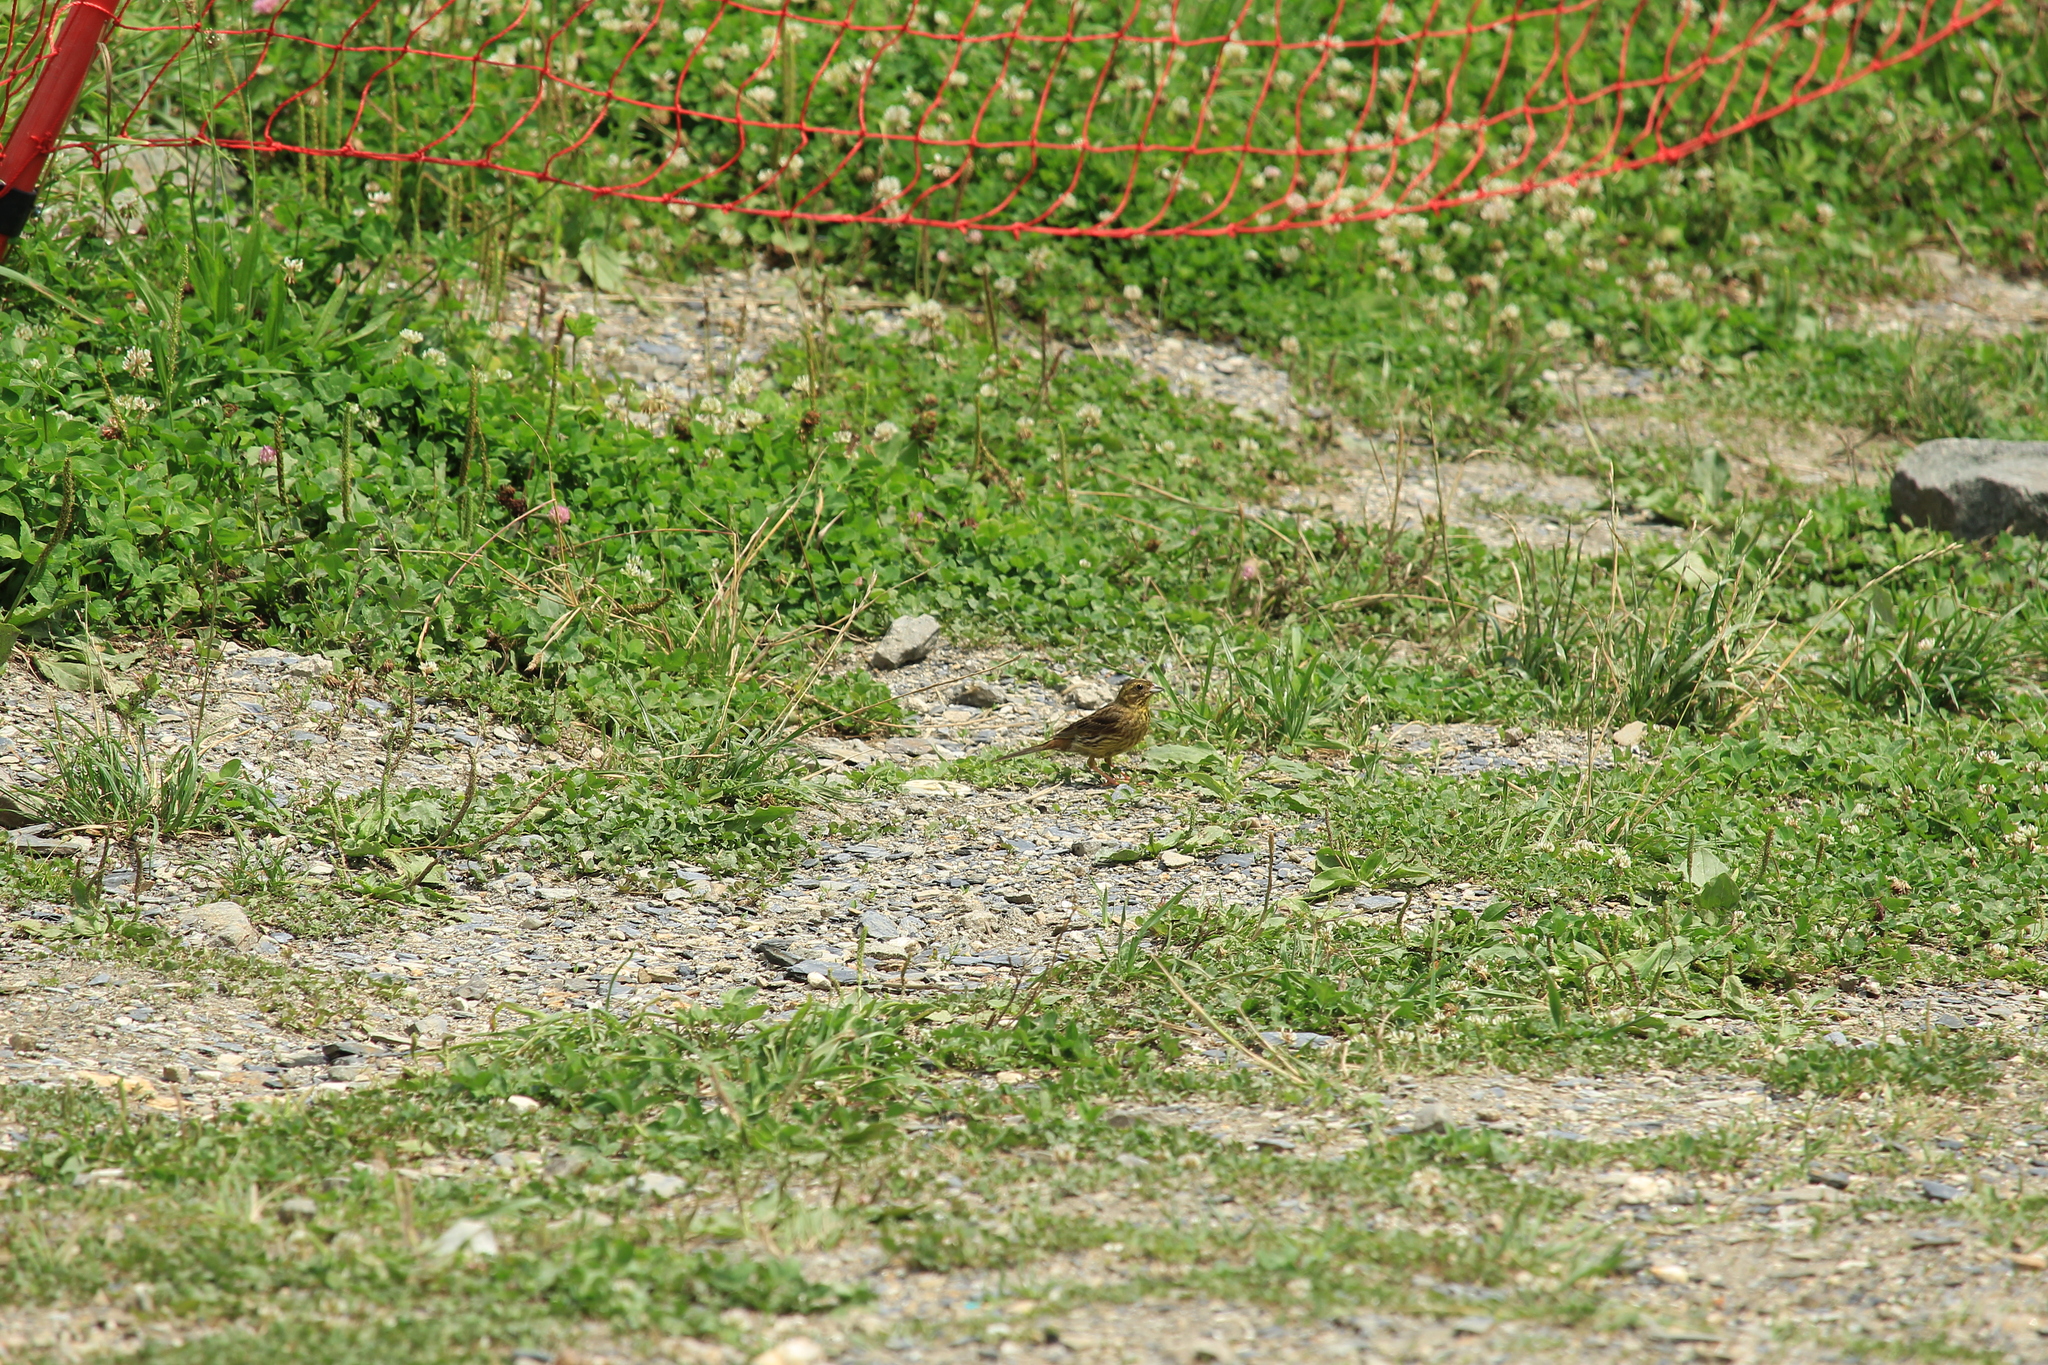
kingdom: Animalia
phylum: Chordata
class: Aves
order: Passeriformes
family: Emberizidae
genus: Emberiza
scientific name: Emberiza citrinella
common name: Yellowhammer
